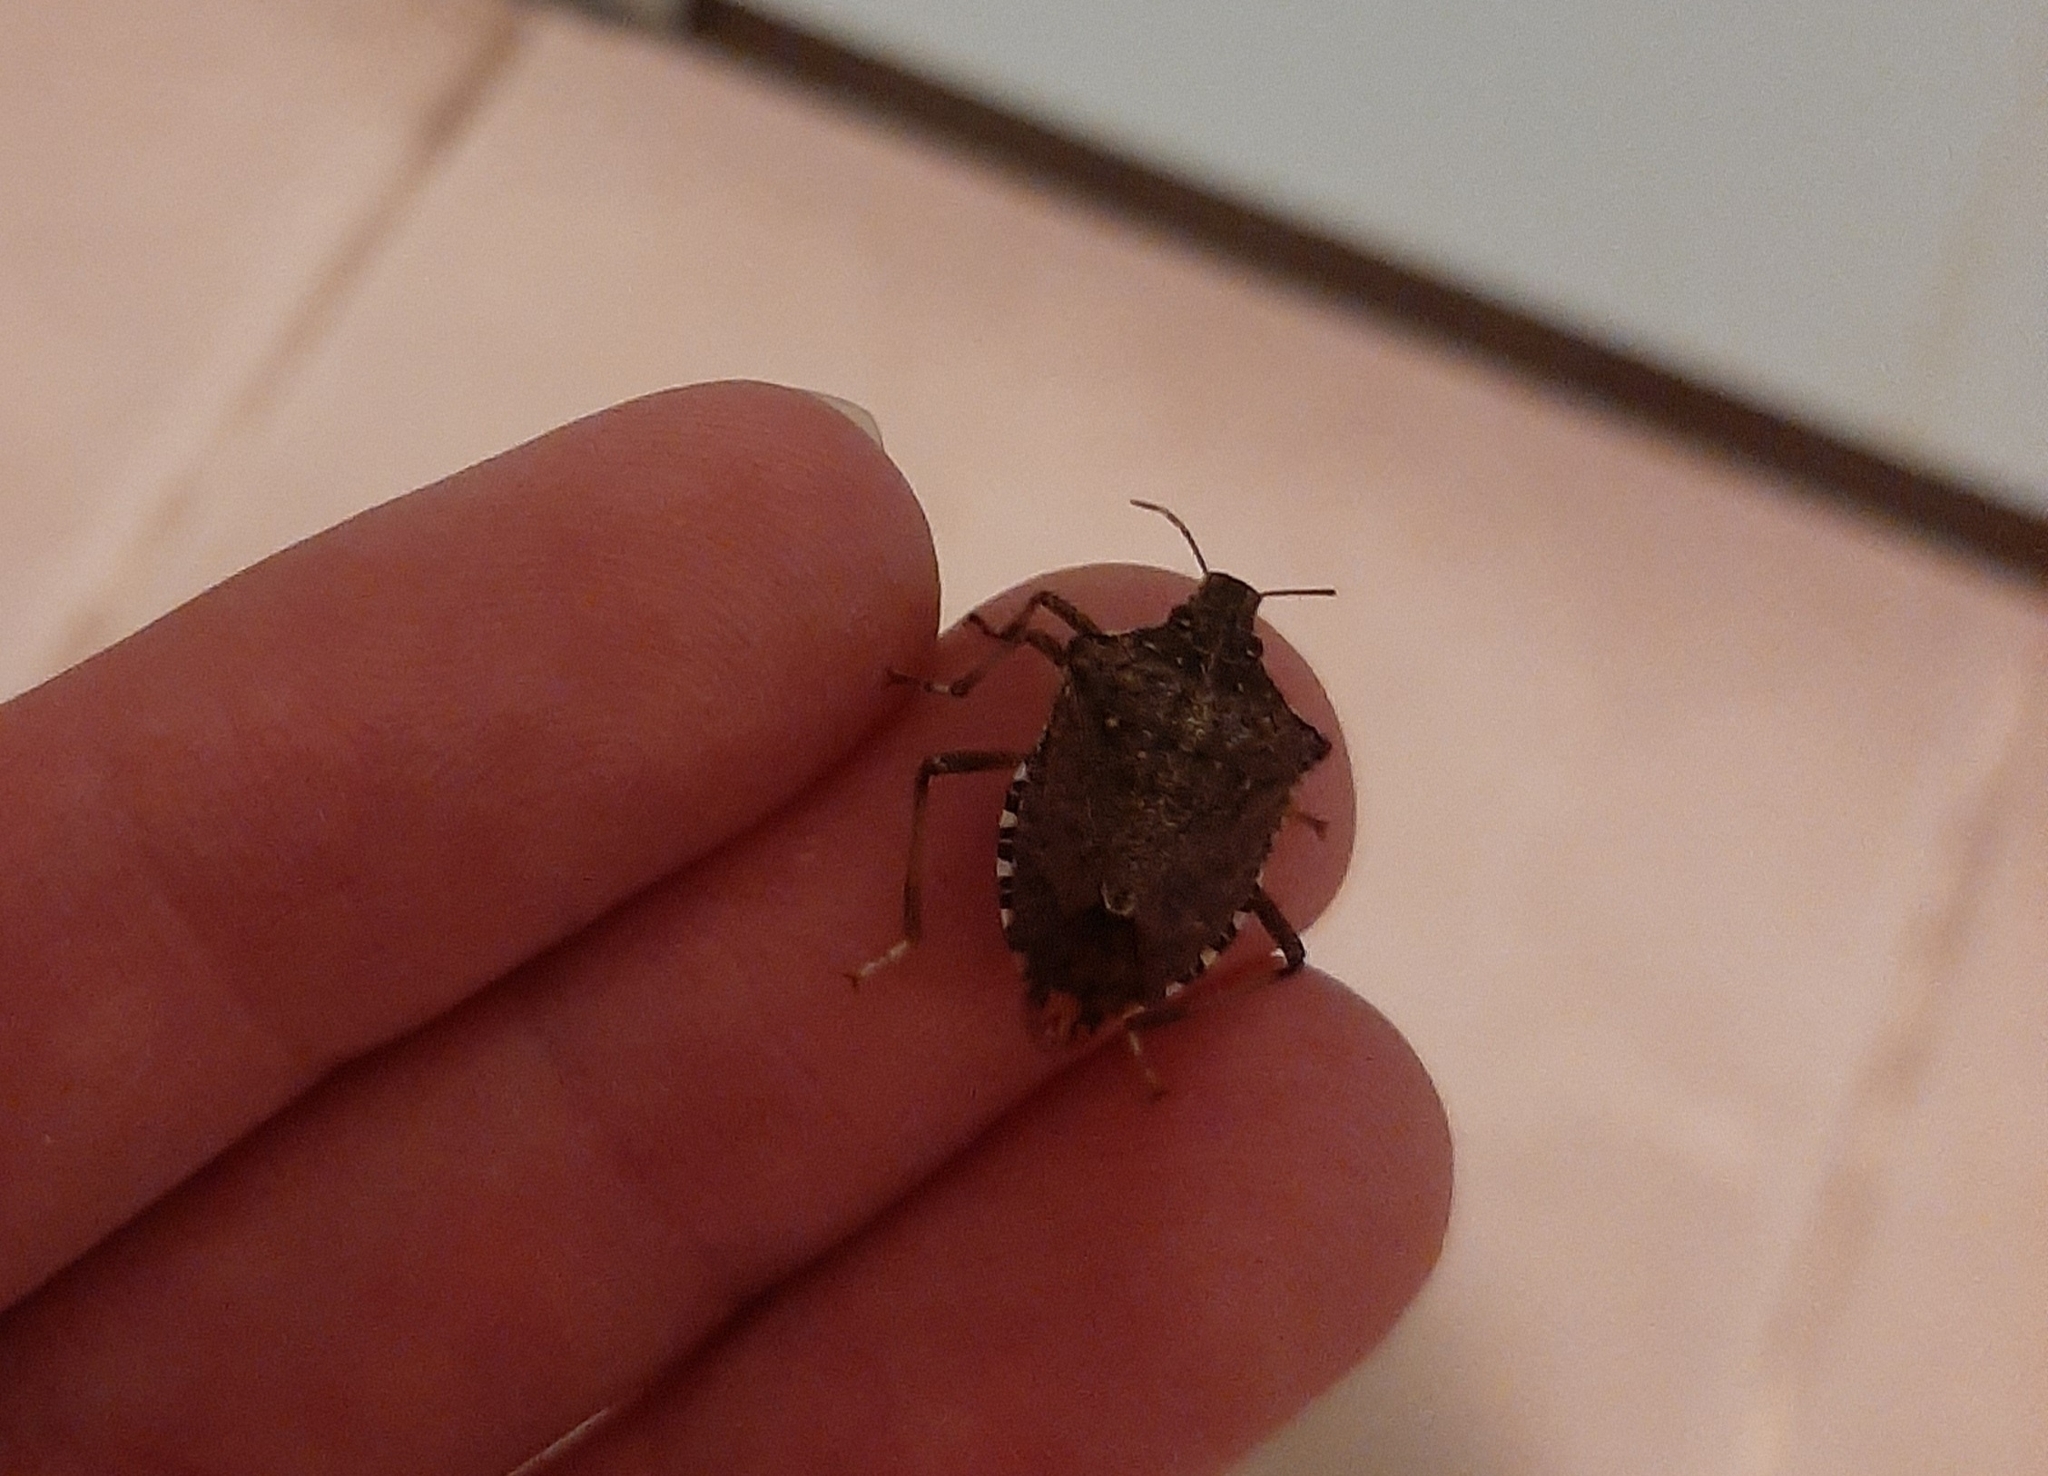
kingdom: Animalia
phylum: Arthropoda
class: Insecta
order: Hemiptera
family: Pentatomidae
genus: Halyomorpha
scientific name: Halyomorpha halys
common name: Brown marmorated stink bug
